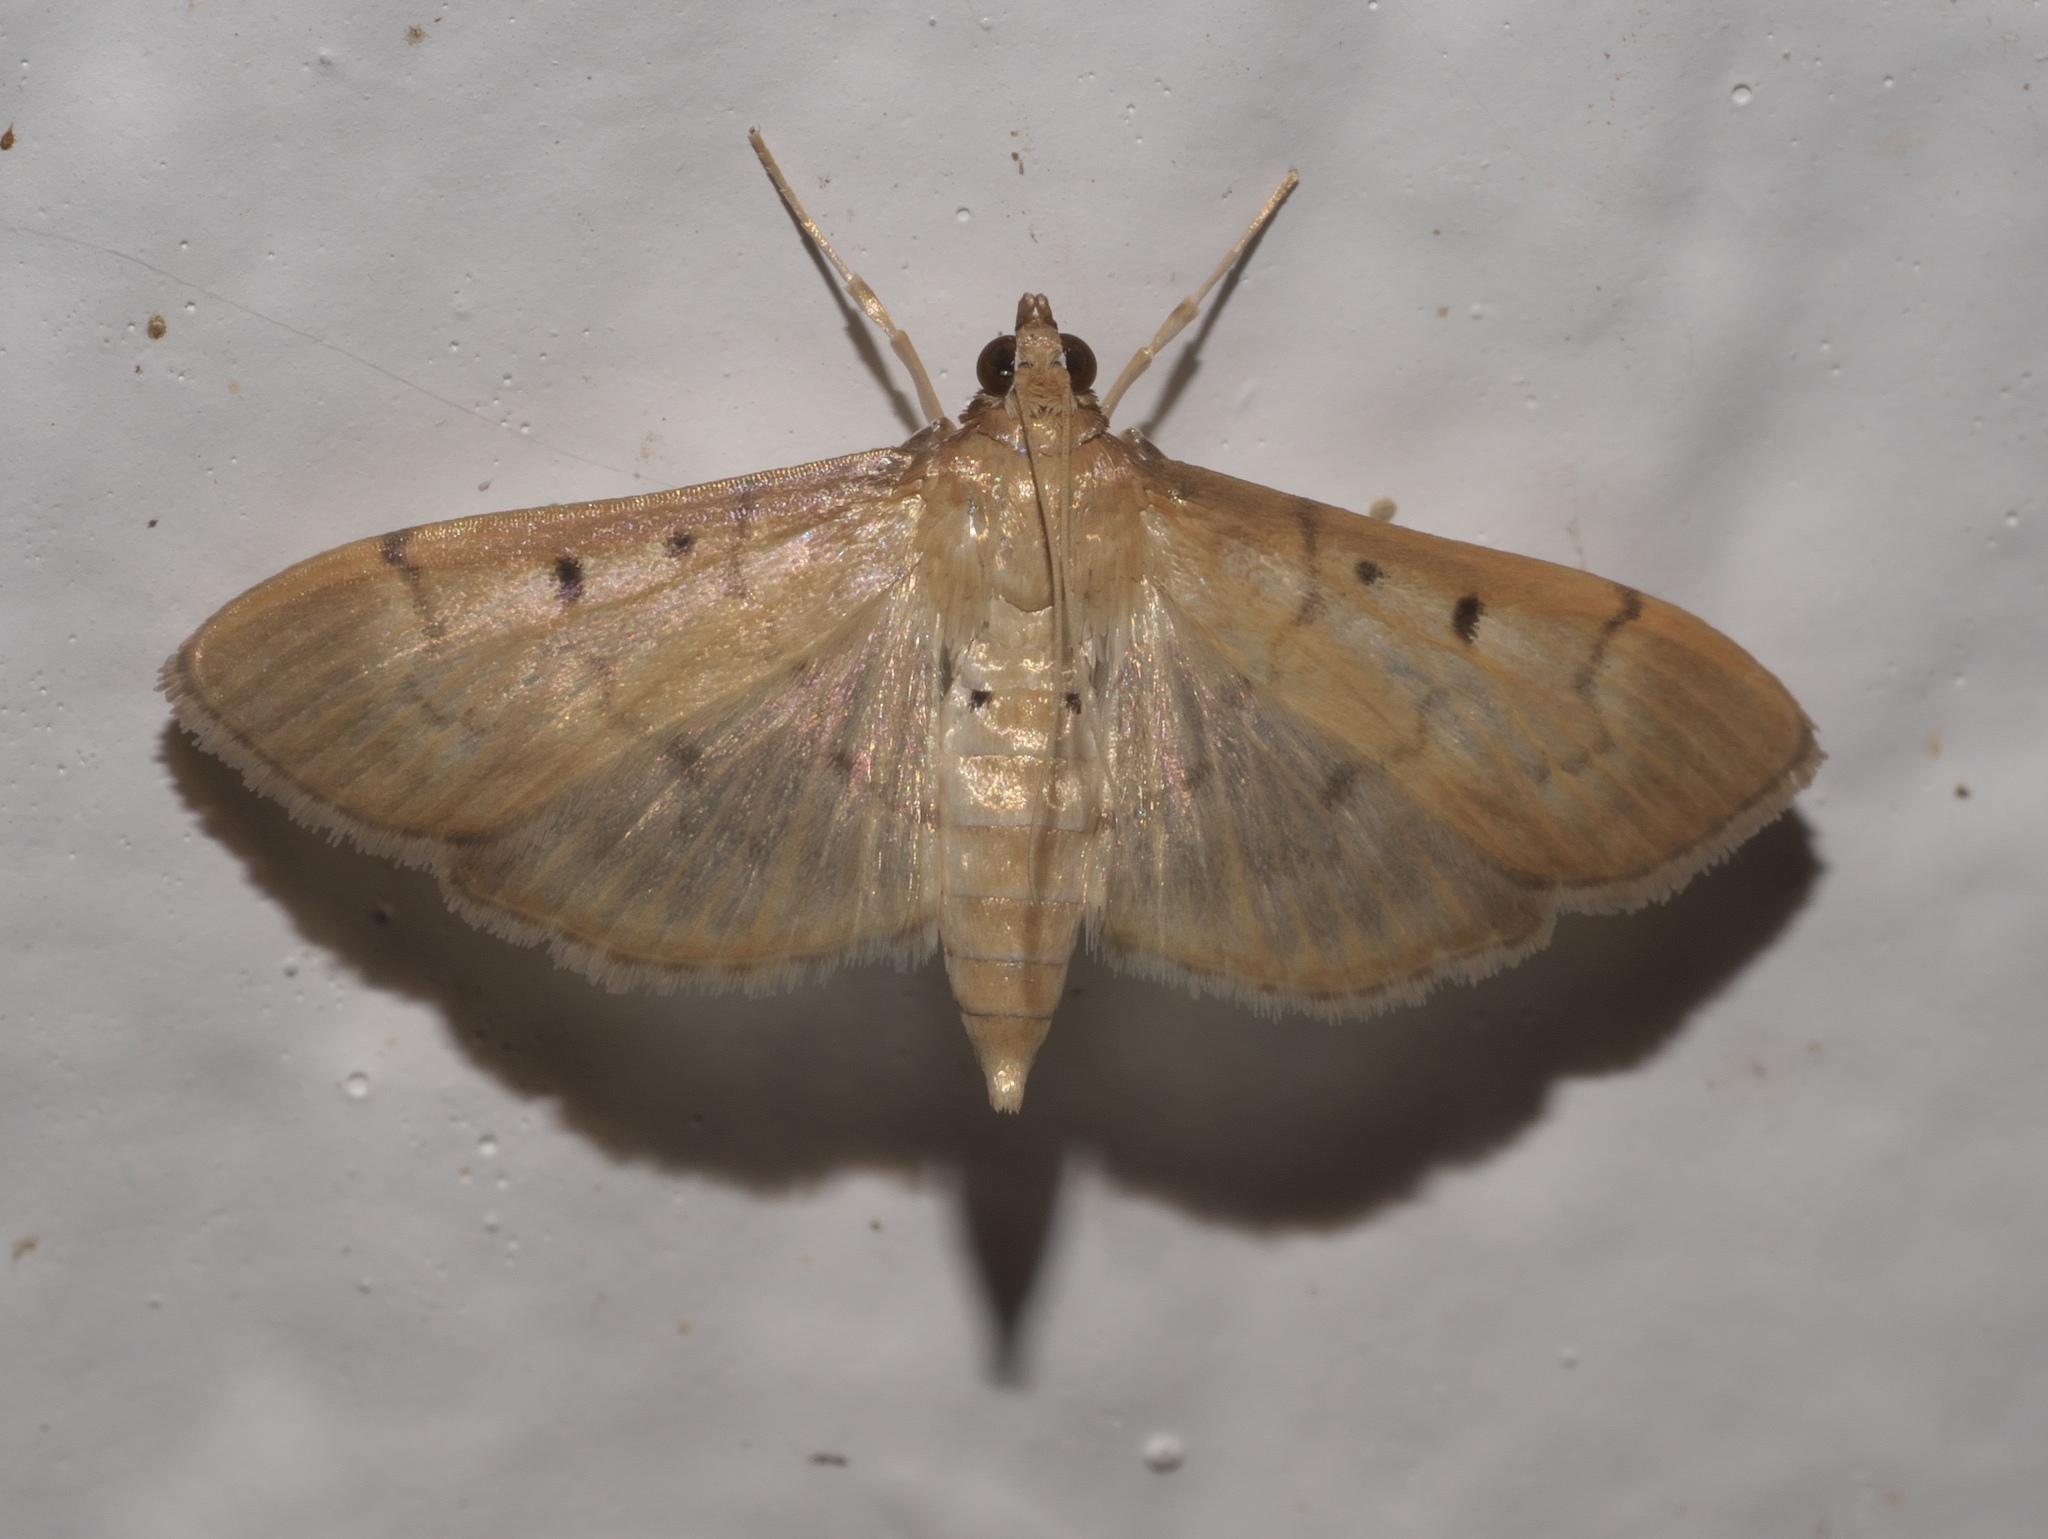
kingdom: Animalia
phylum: Arthropoda
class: Insecta
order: Lepidoptera
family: Crambidae
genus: Herpetogramma
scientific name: Herpetogramma bipunctalis
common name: Southern beet webworm
